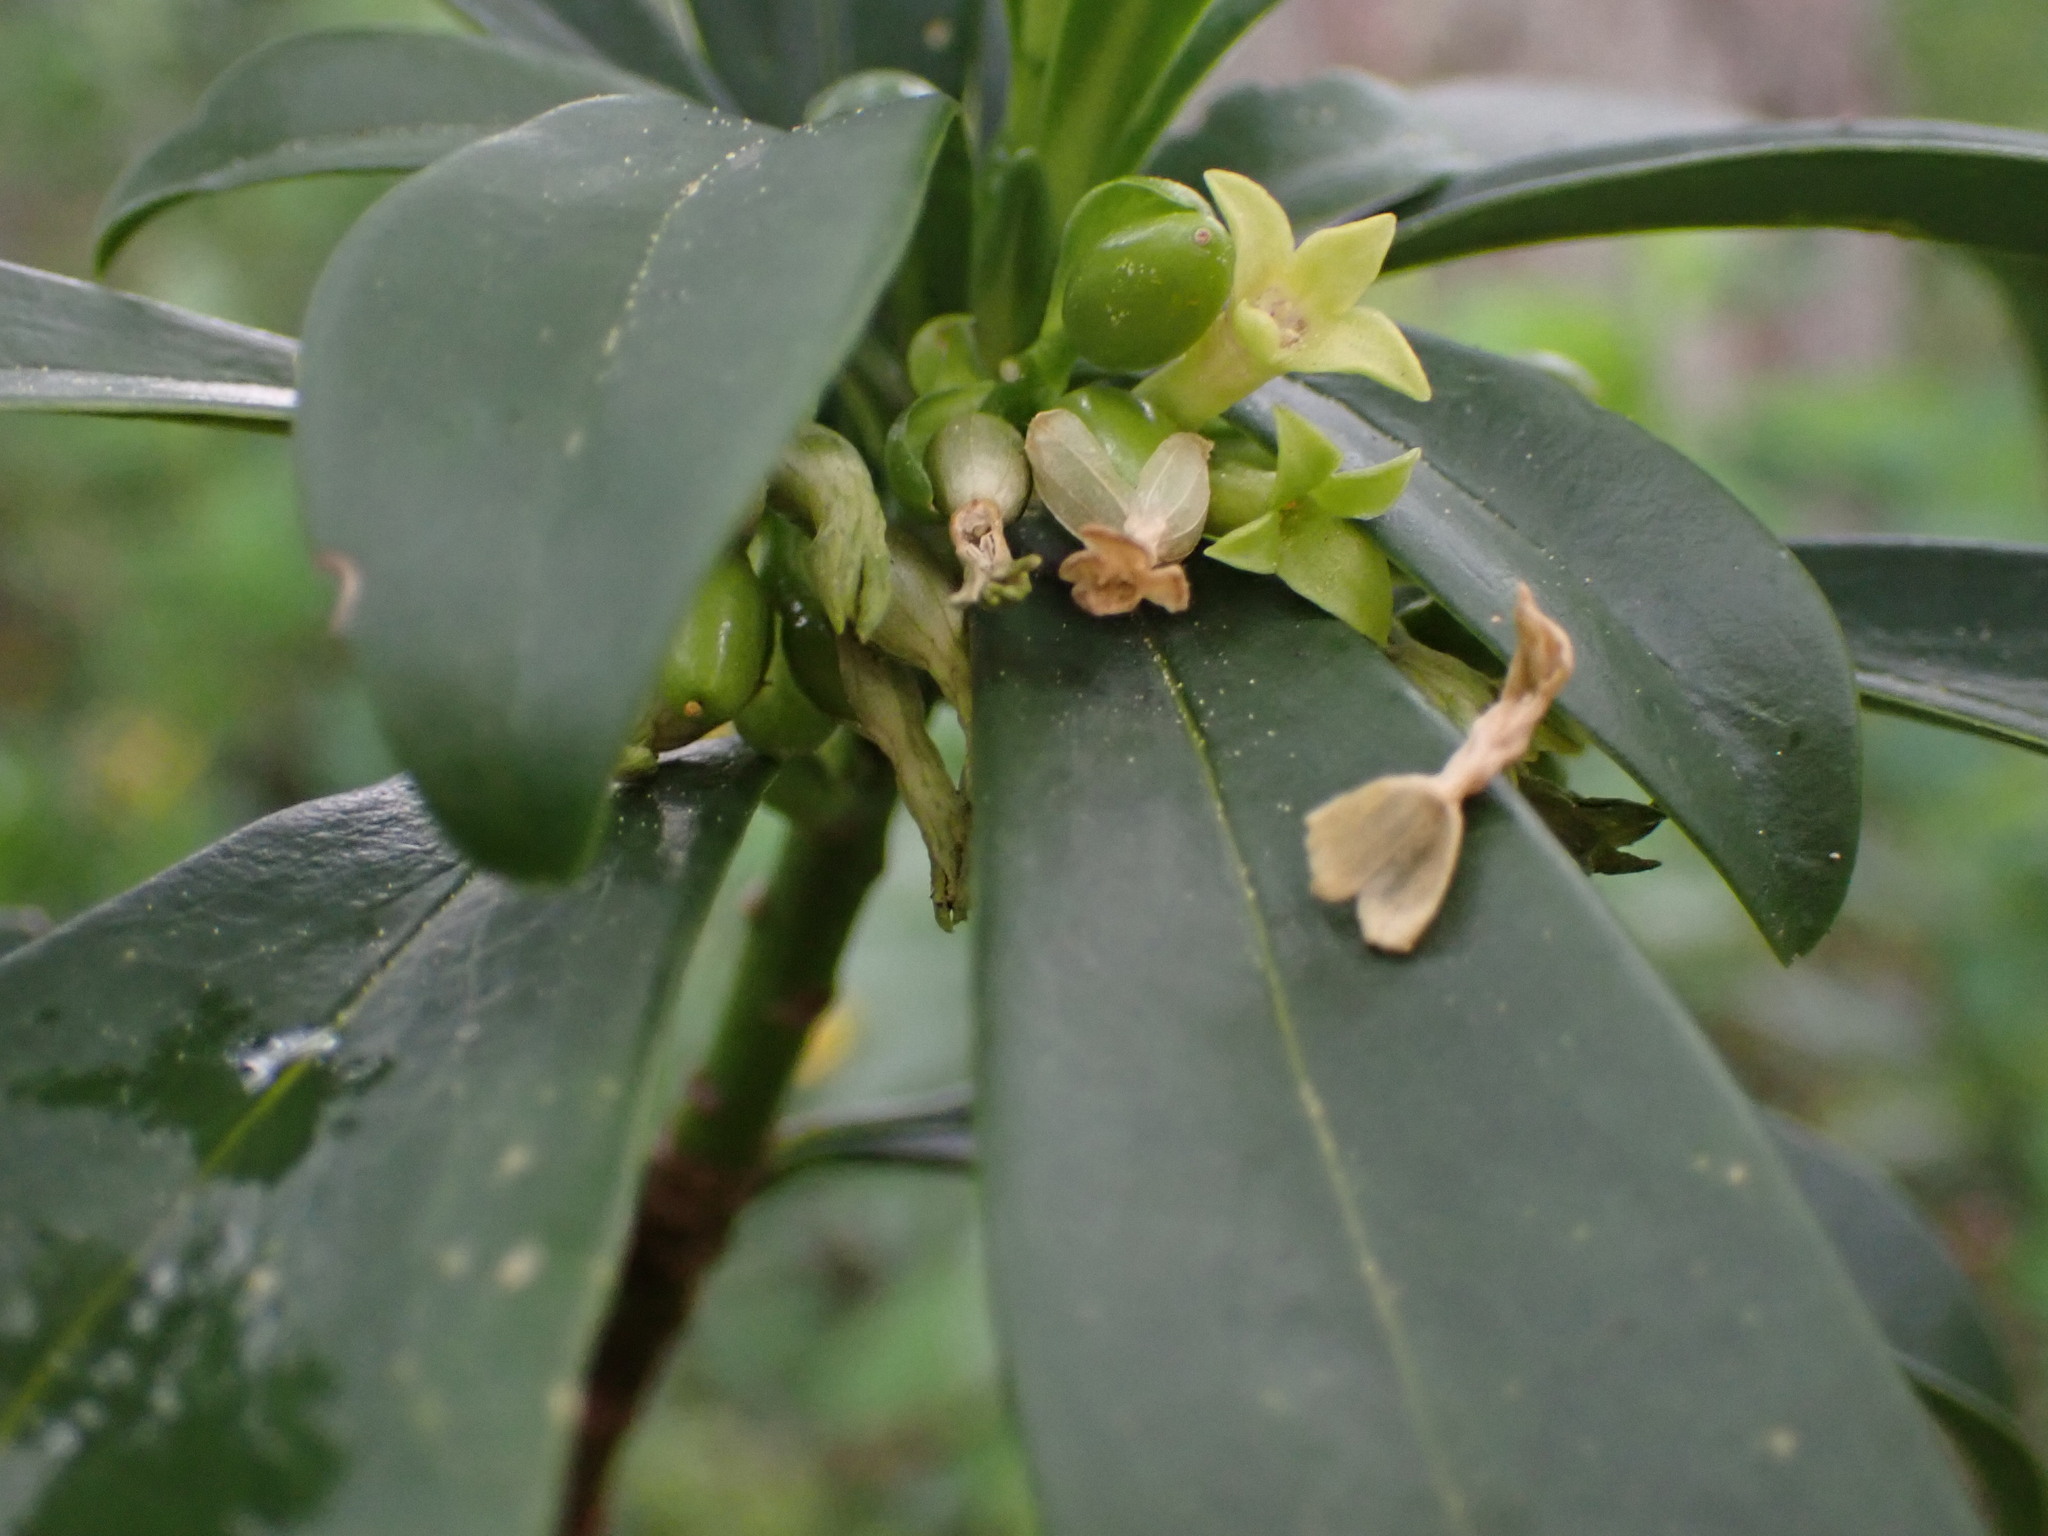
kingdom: Plantae
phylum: Tracheophyta
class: Magnoliopsida
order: Malvales
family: Thymelaeaceae
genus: Daphne
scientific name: Daphne laureola
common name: Spurge-laurel
